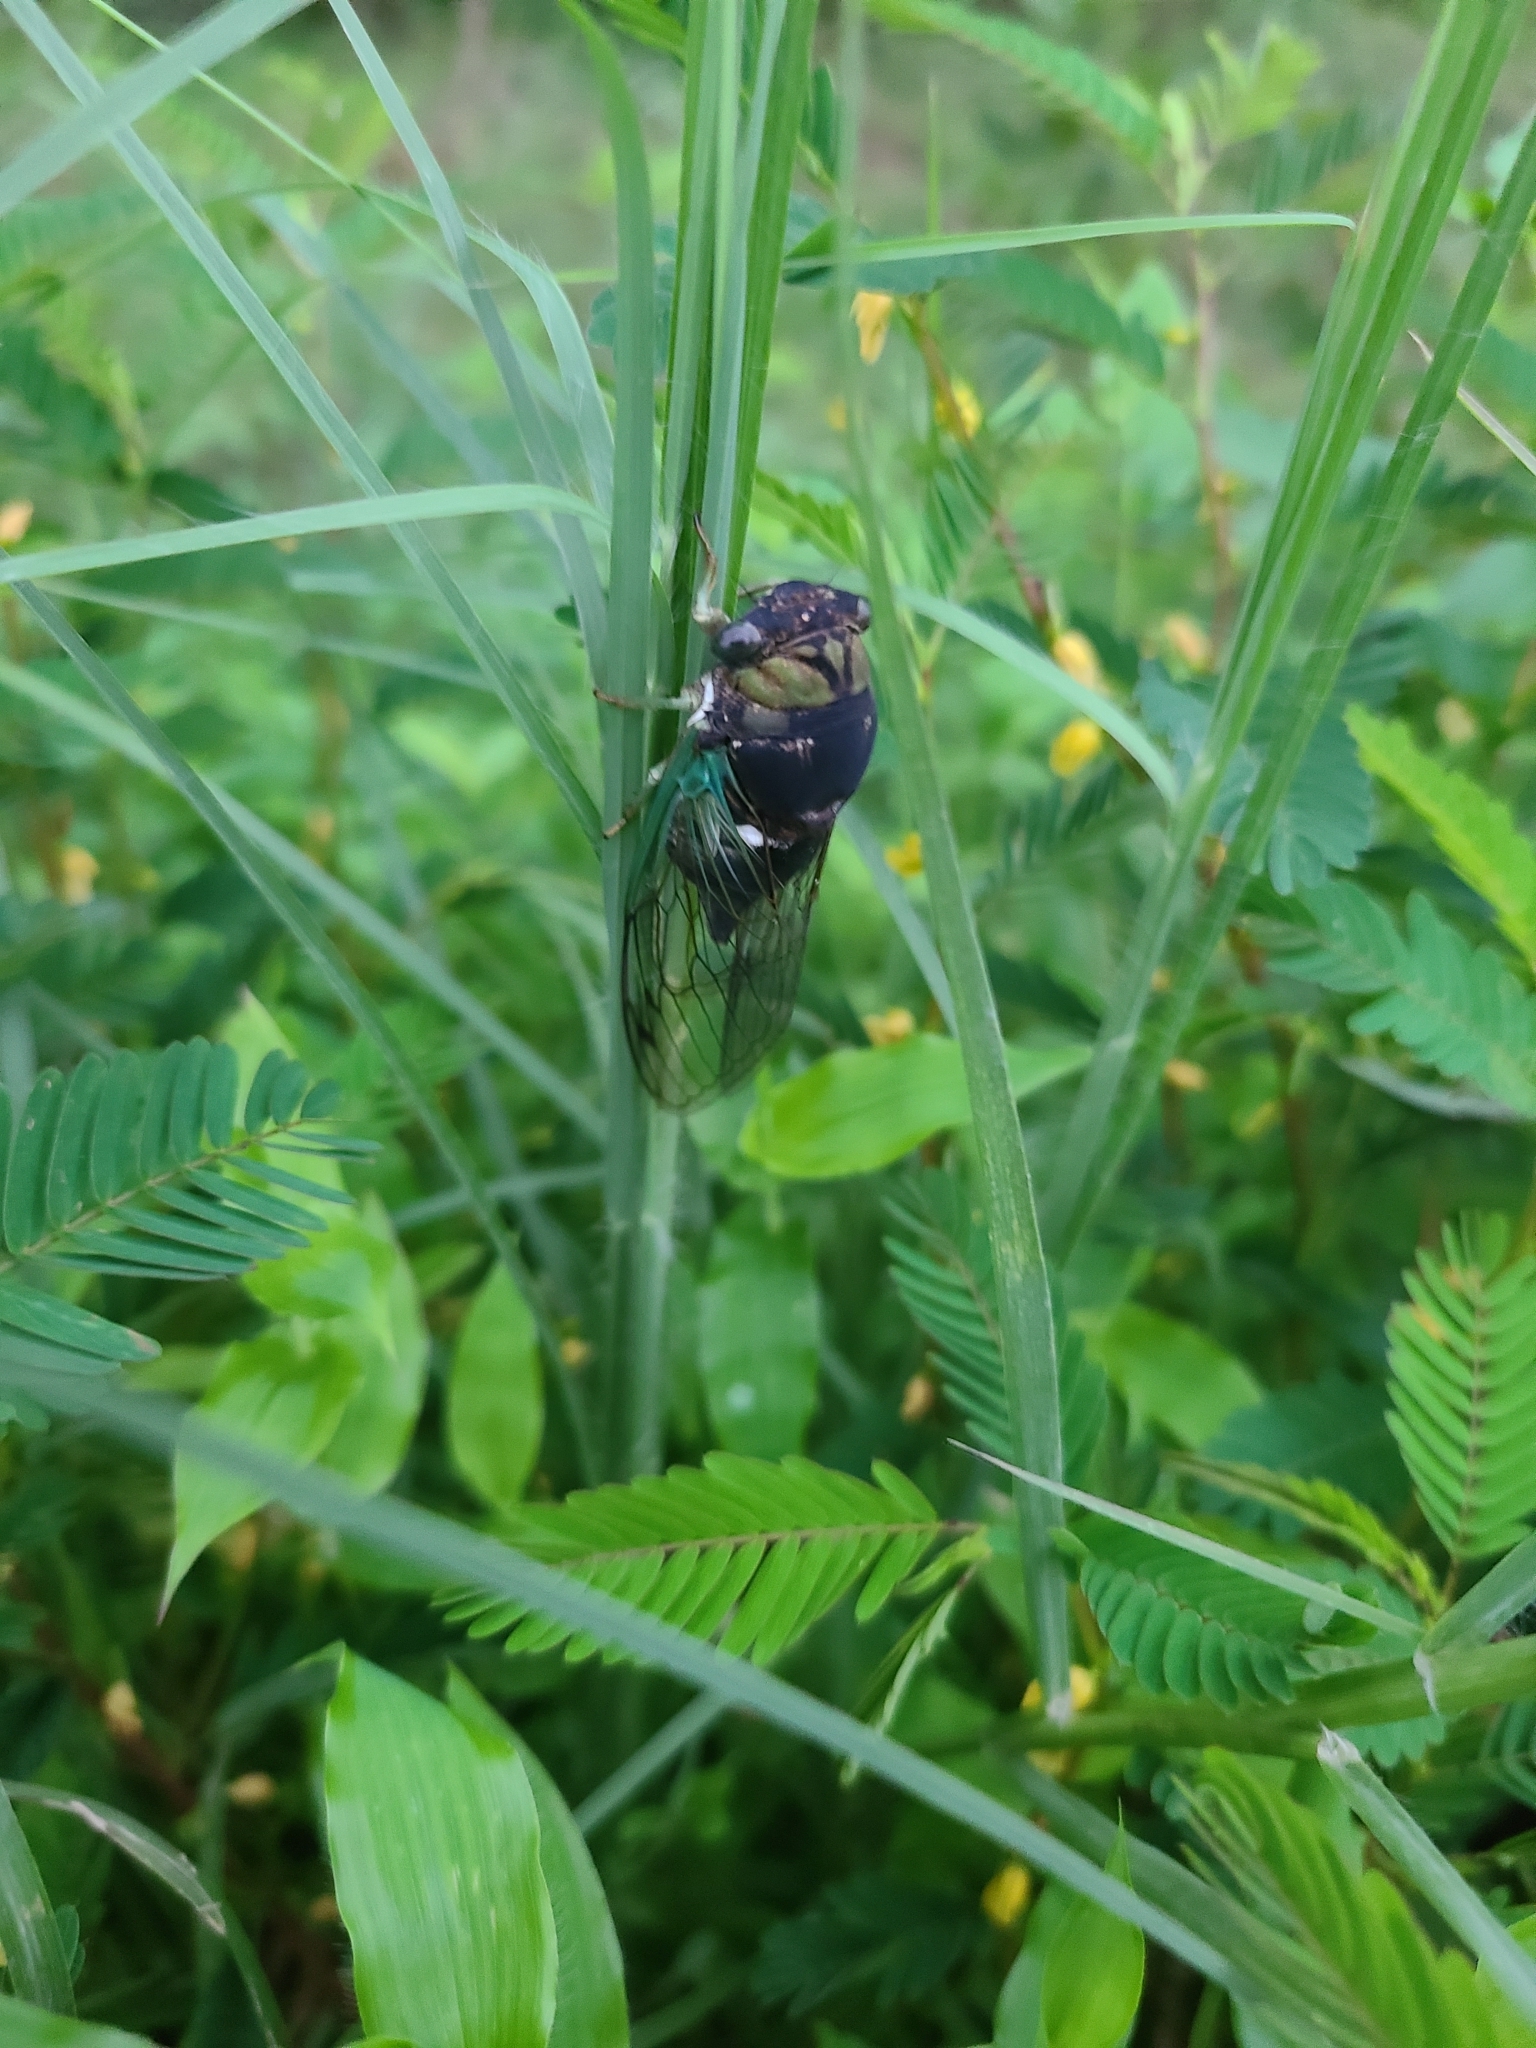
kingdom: Animalia
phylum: Arthropoda
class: Insecta
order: Hemiptera
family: Cicadidae
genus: Neotibicen
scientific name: Neotibicen tibicen
